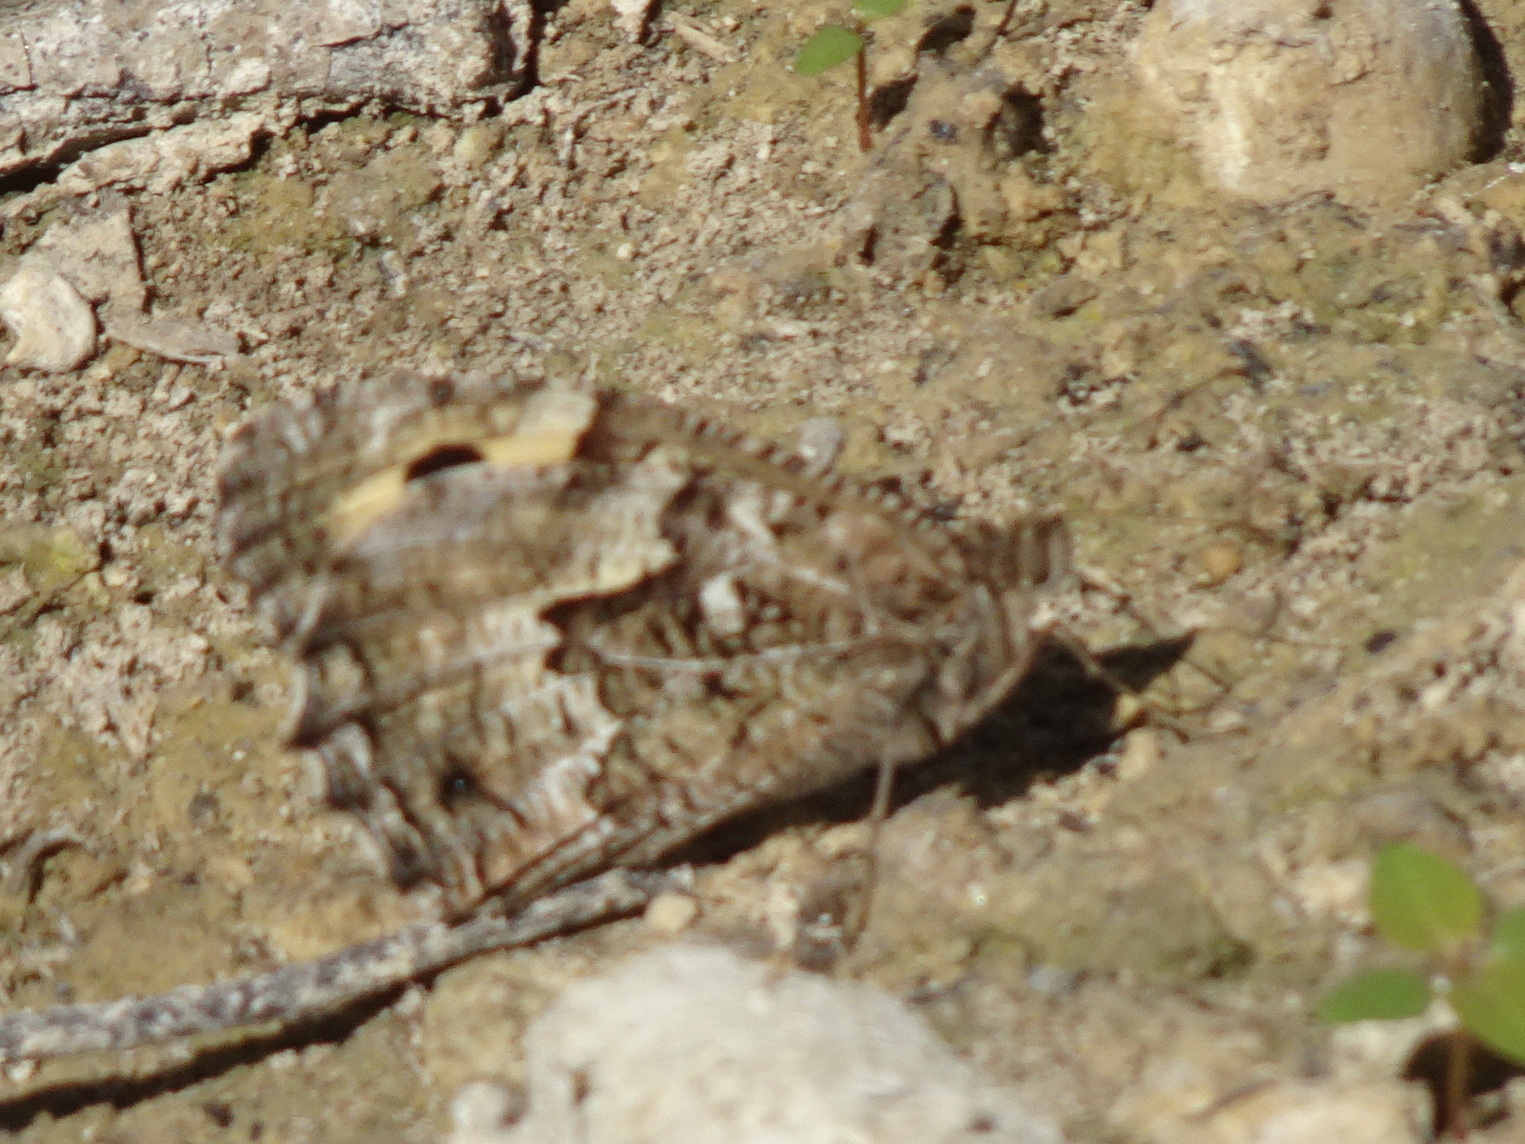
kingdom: Animalia
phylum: Arthropoda
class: Insecta
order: Lepidoptera
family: Nymphalidae
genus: Hipparchia
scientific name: Hipparchia semele
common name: Grayling
